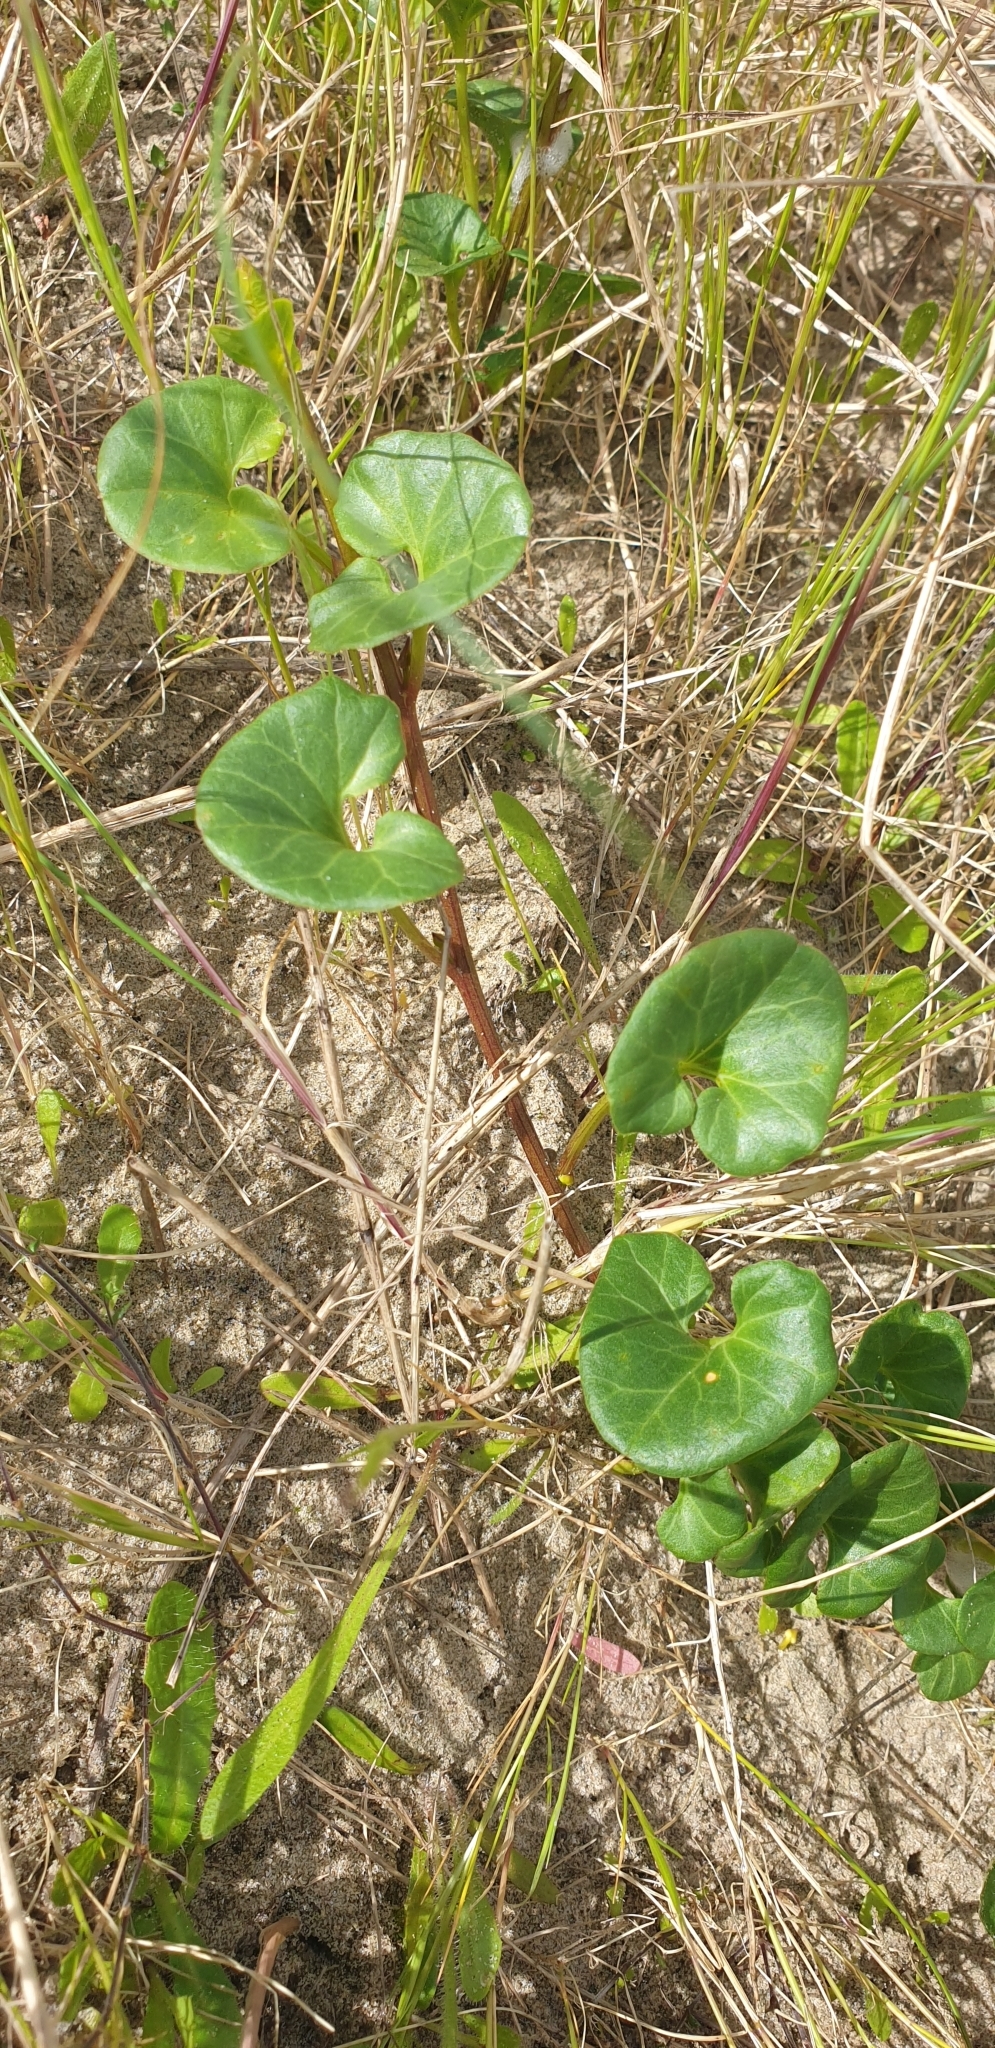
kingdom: Plantae
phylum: Tracheophyta
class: Magnoliopsida
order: Solanales
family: Convolvulaceae
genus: Calystegia
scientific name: Calystegia soldanella
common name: Sea bindweed
